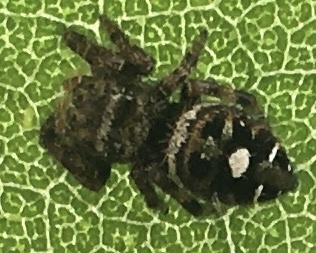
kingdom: Animalia
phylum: Arthropoda
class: Arachnida
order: Araneae
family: Salticidae
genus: Phidippus
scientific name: Phidippus audax
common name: Bold jumper
